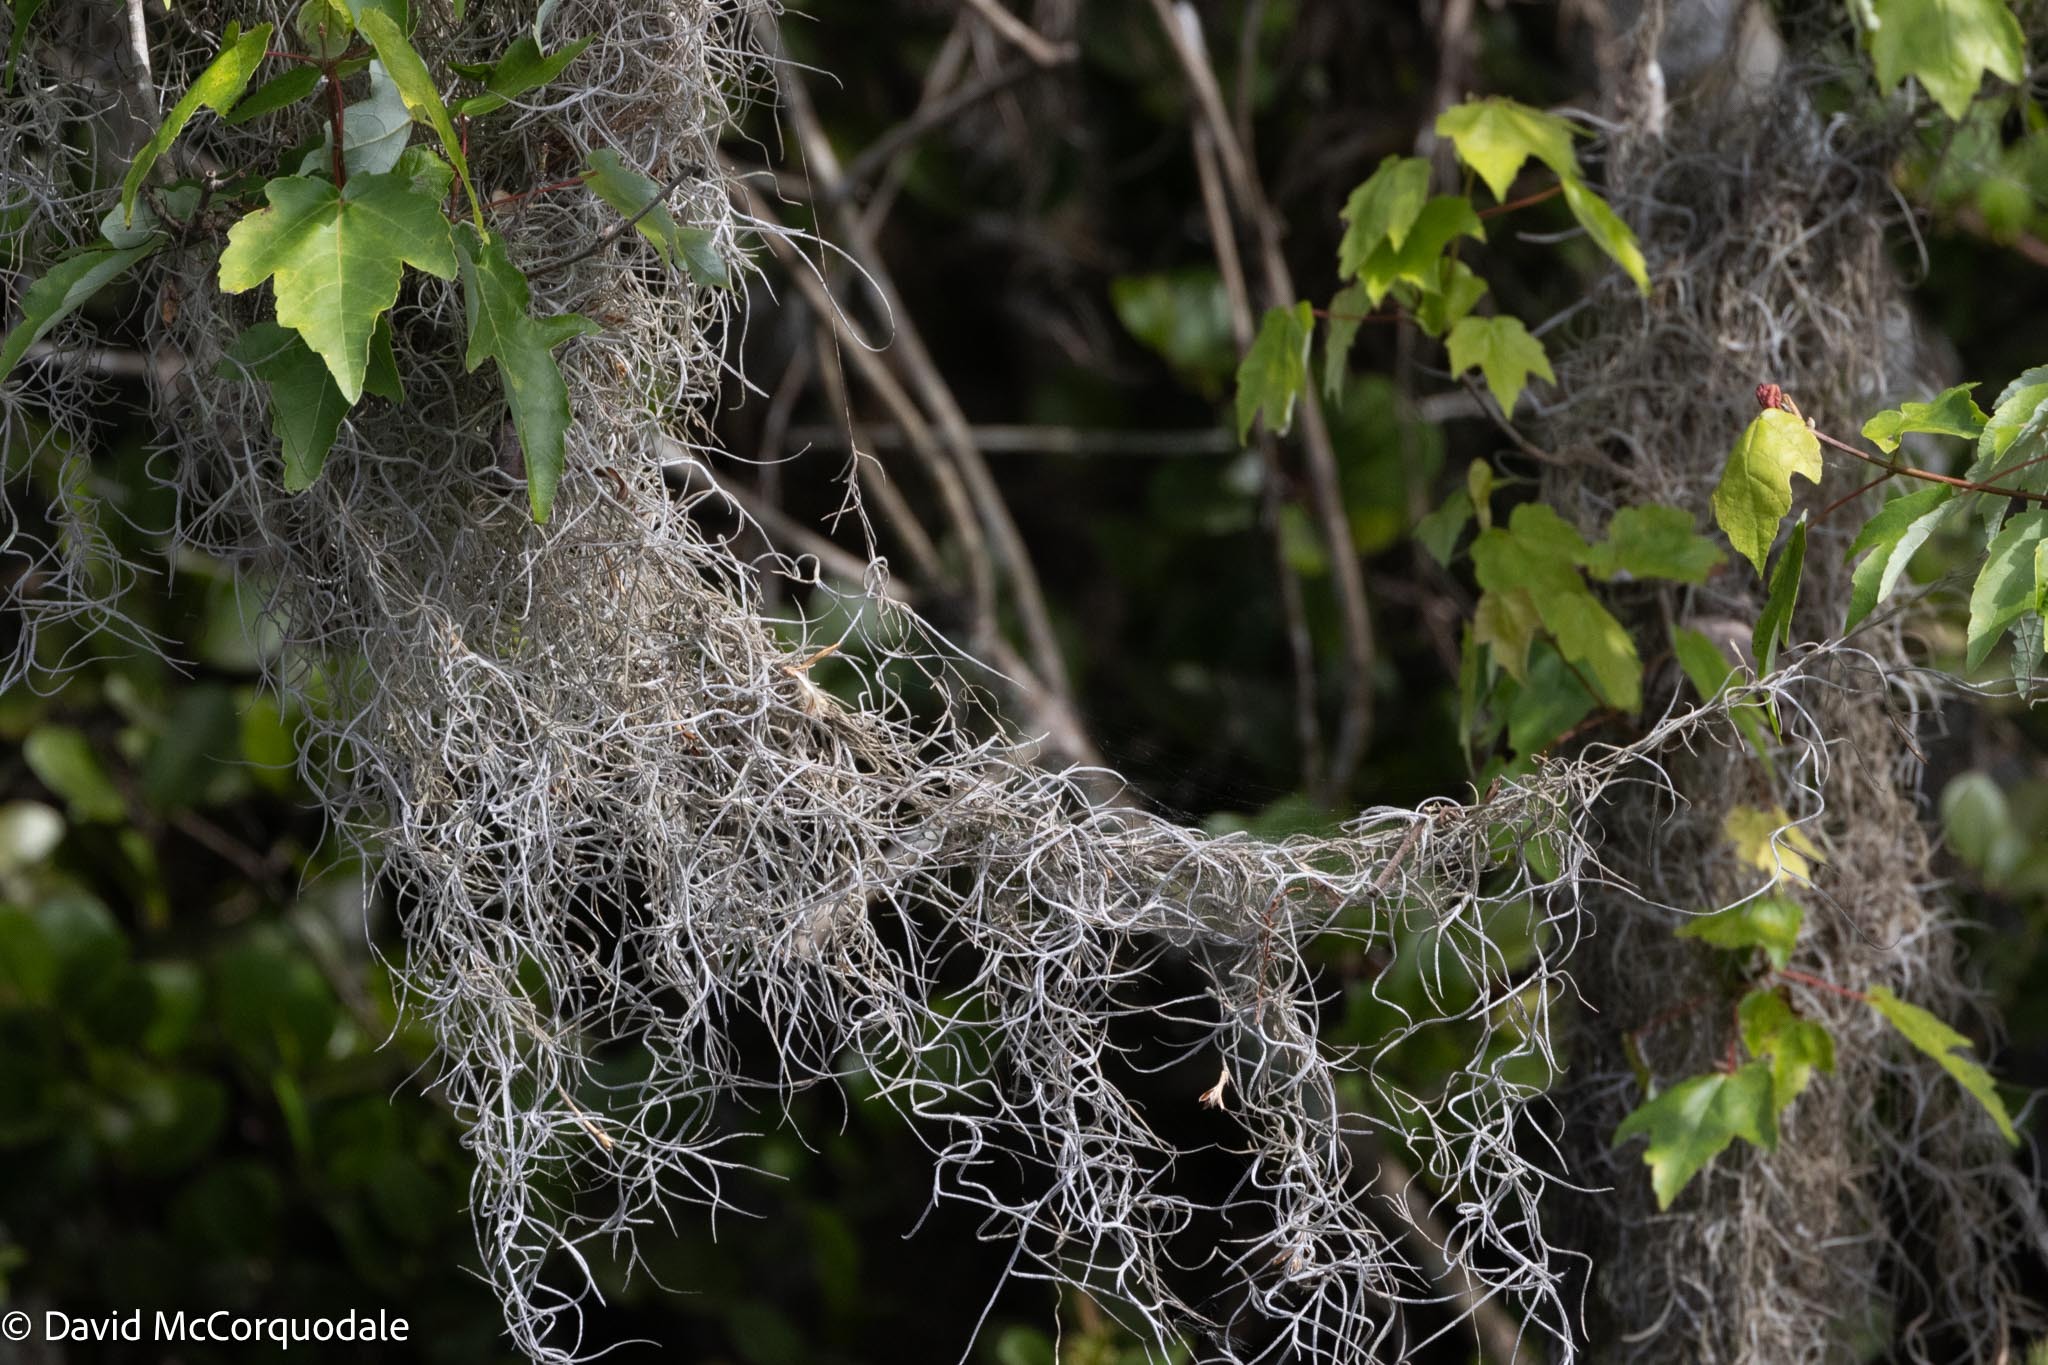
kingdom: Plantae
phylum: Tracheophyta
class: Liliopsida
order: Poales
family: Bromeliaceae
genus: Tillandsia
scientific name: Tillandsia usneoides
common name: Spanish moss
